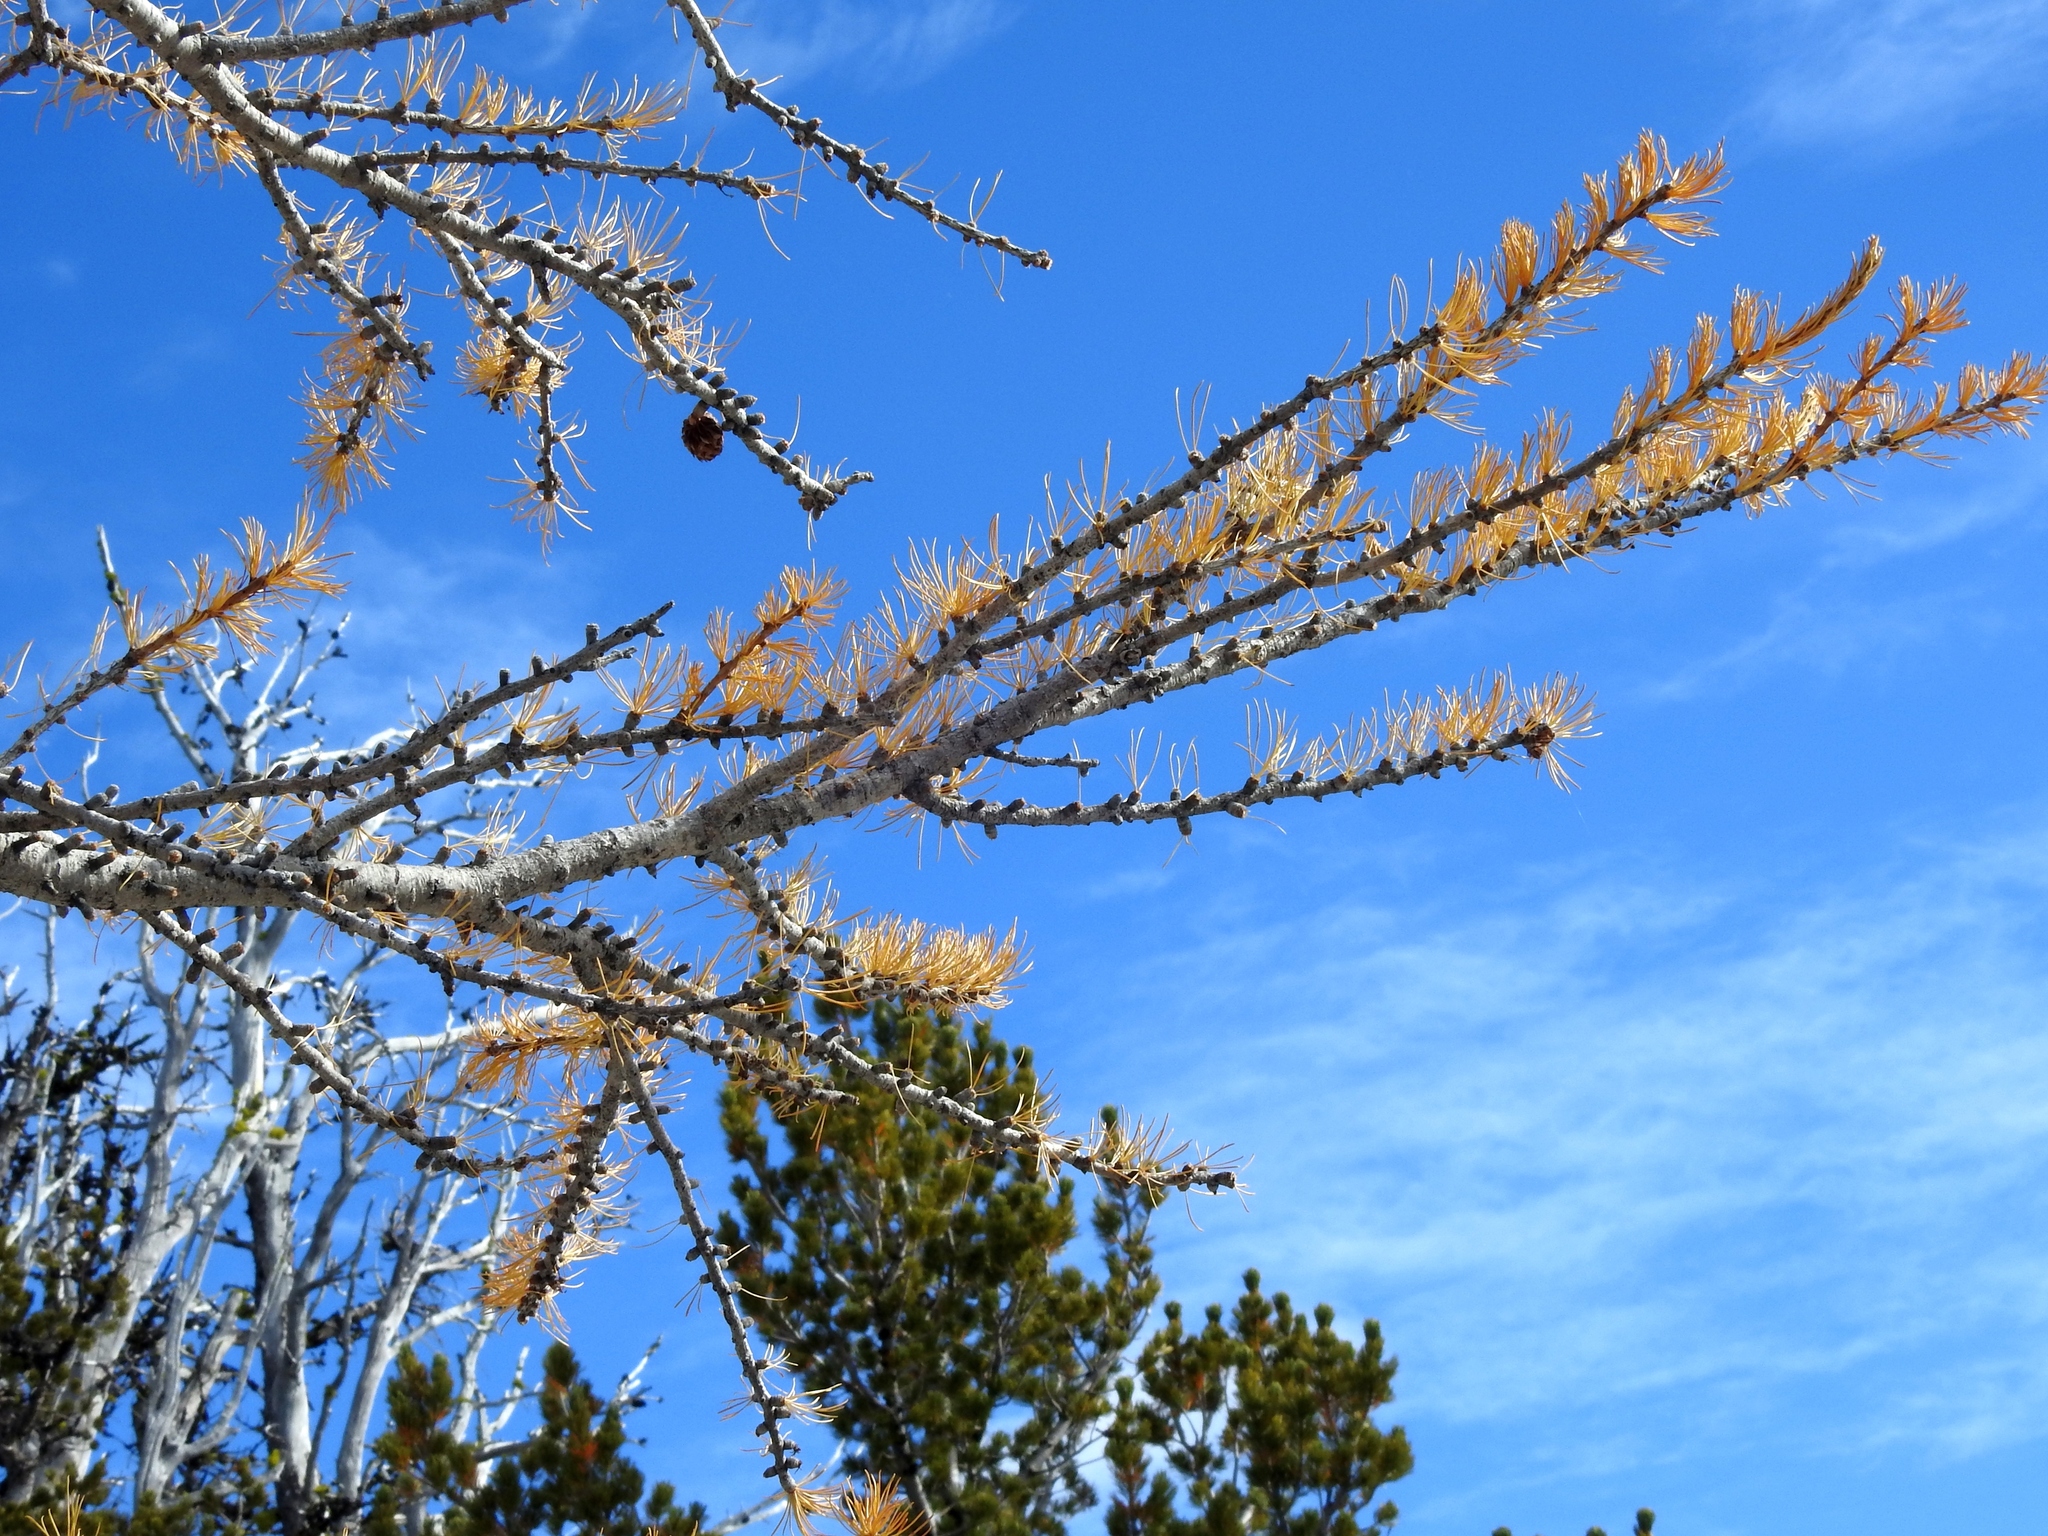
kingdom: Plantae
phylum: Tracheophyta
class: Pinopsida
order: Pinales
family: Pinaceae
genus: Larix
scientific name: Larix lyallii
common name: Alpine larch
